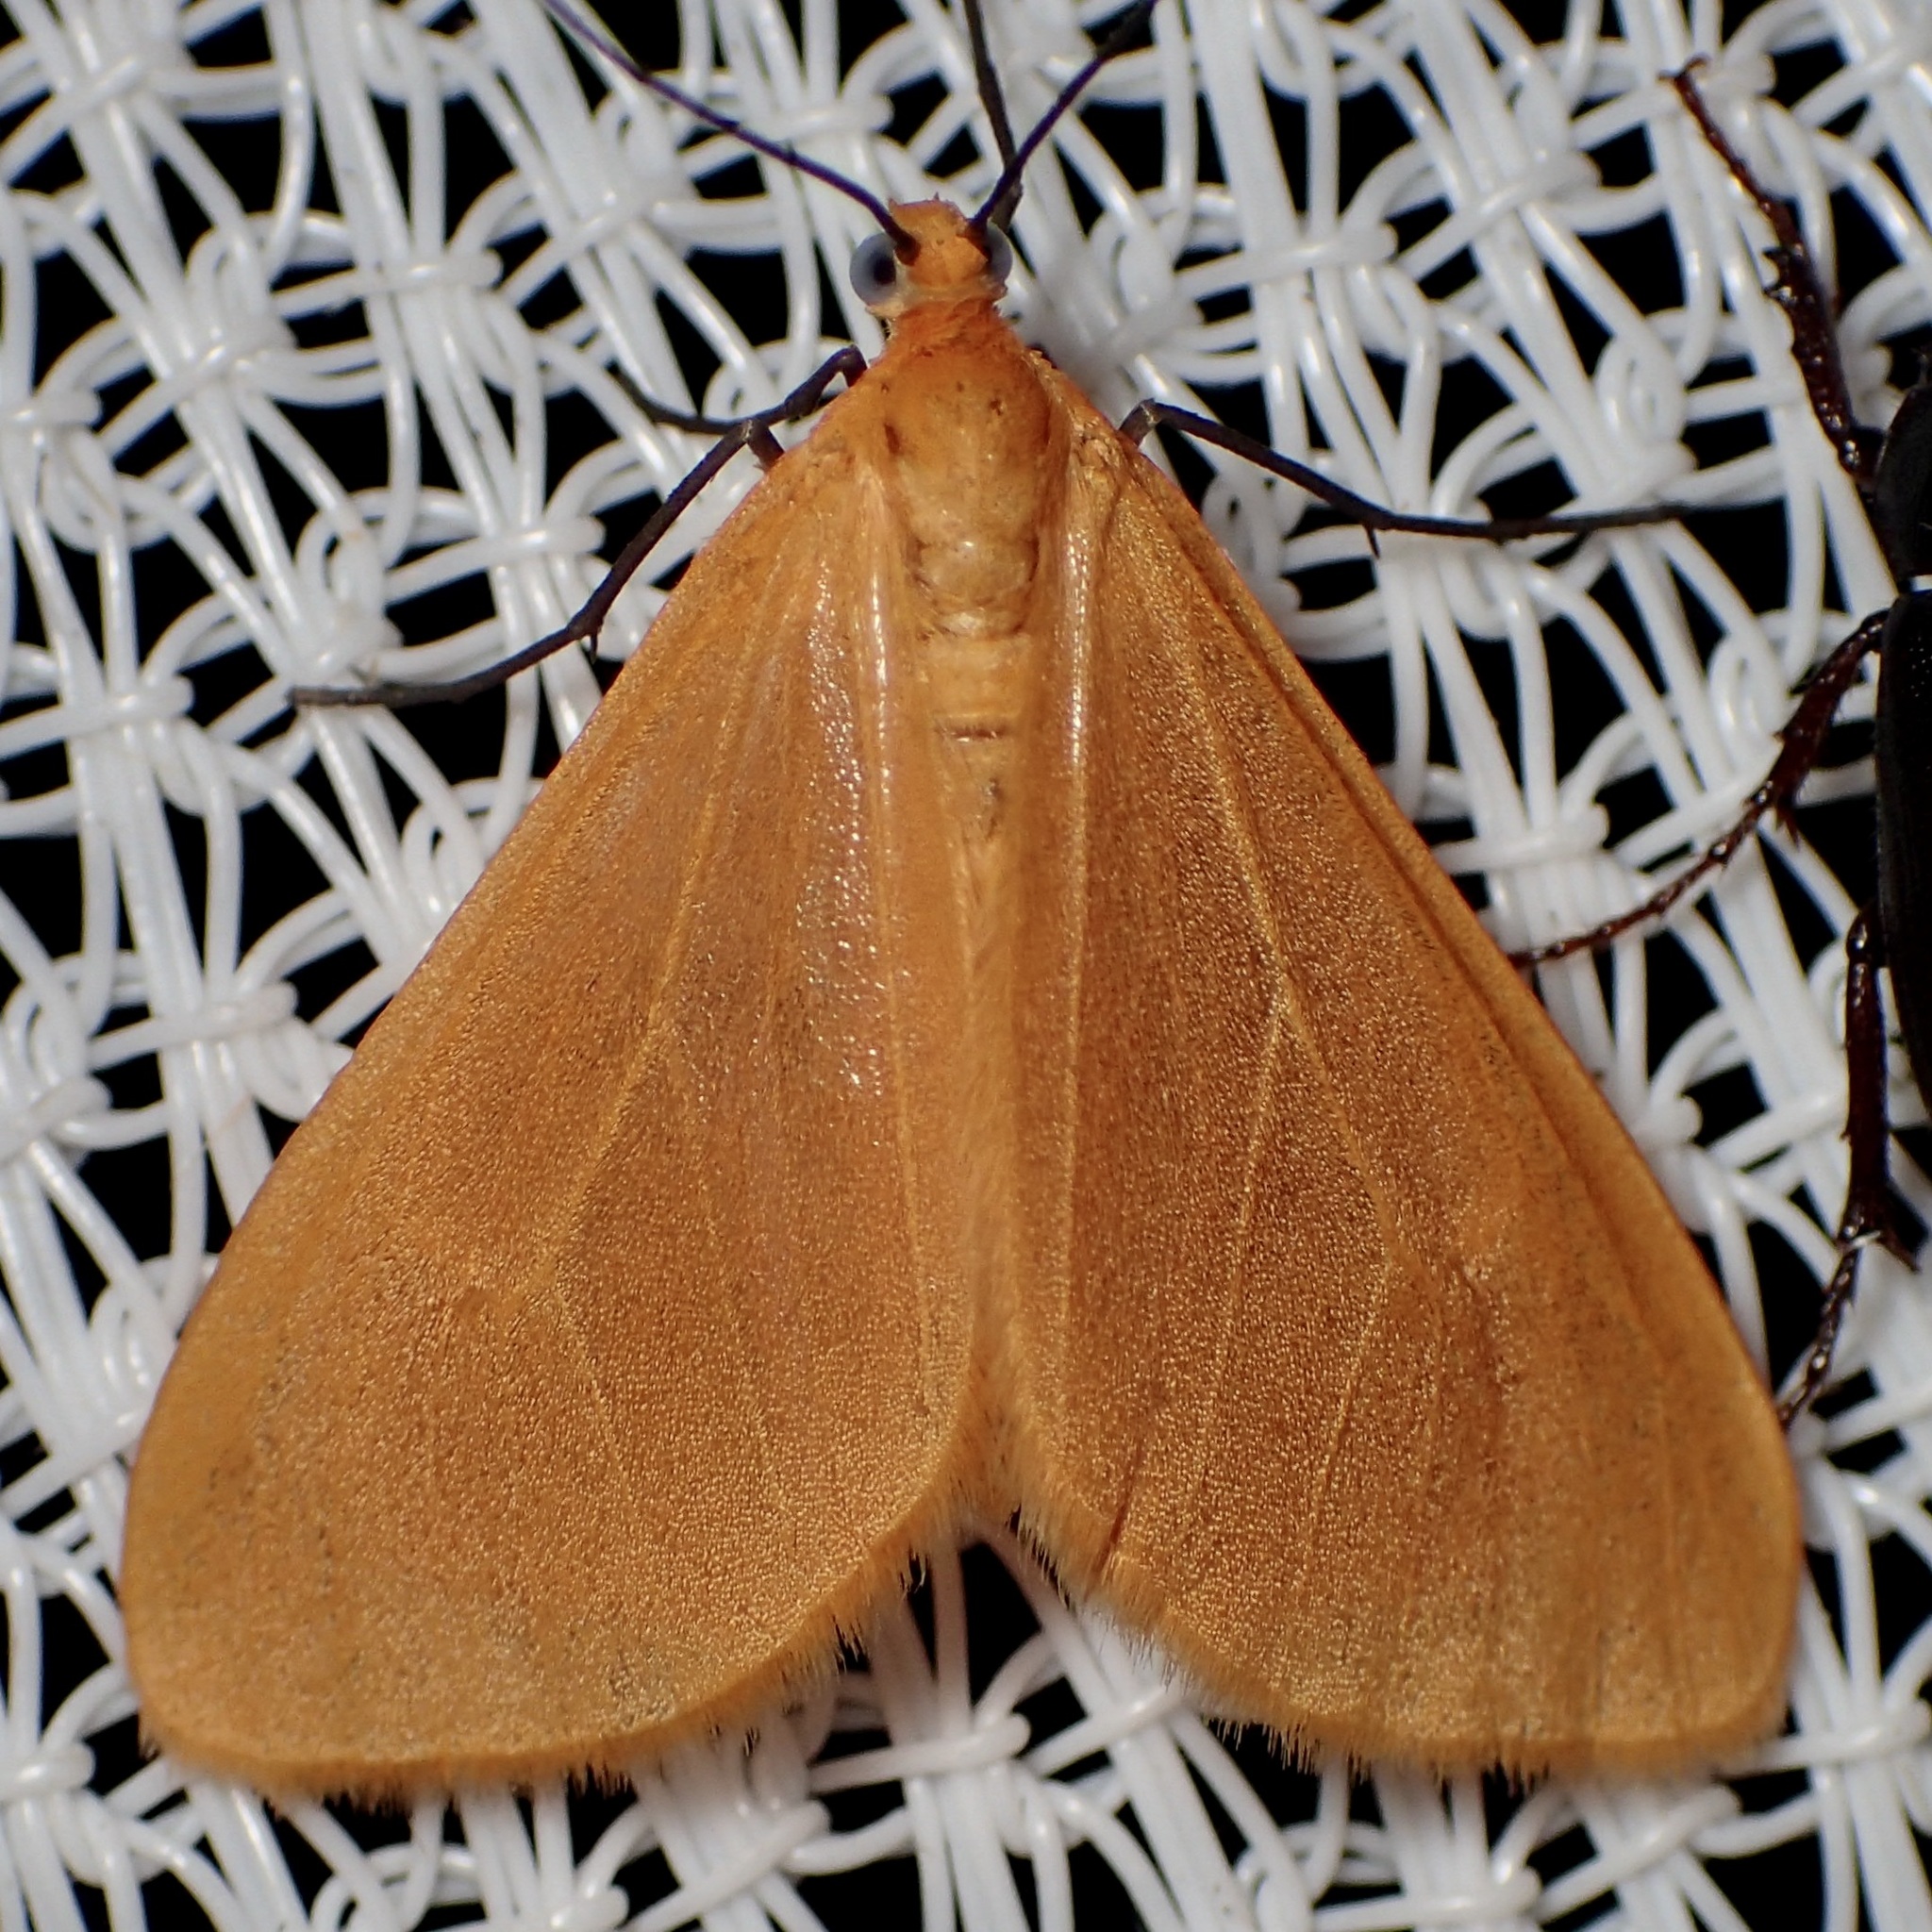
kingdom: Animalia
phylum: Arthropoda
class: Insecta
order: Lepidoptera
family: Geometridae
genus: Eubaphe
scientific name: Eubaphe unicolor
